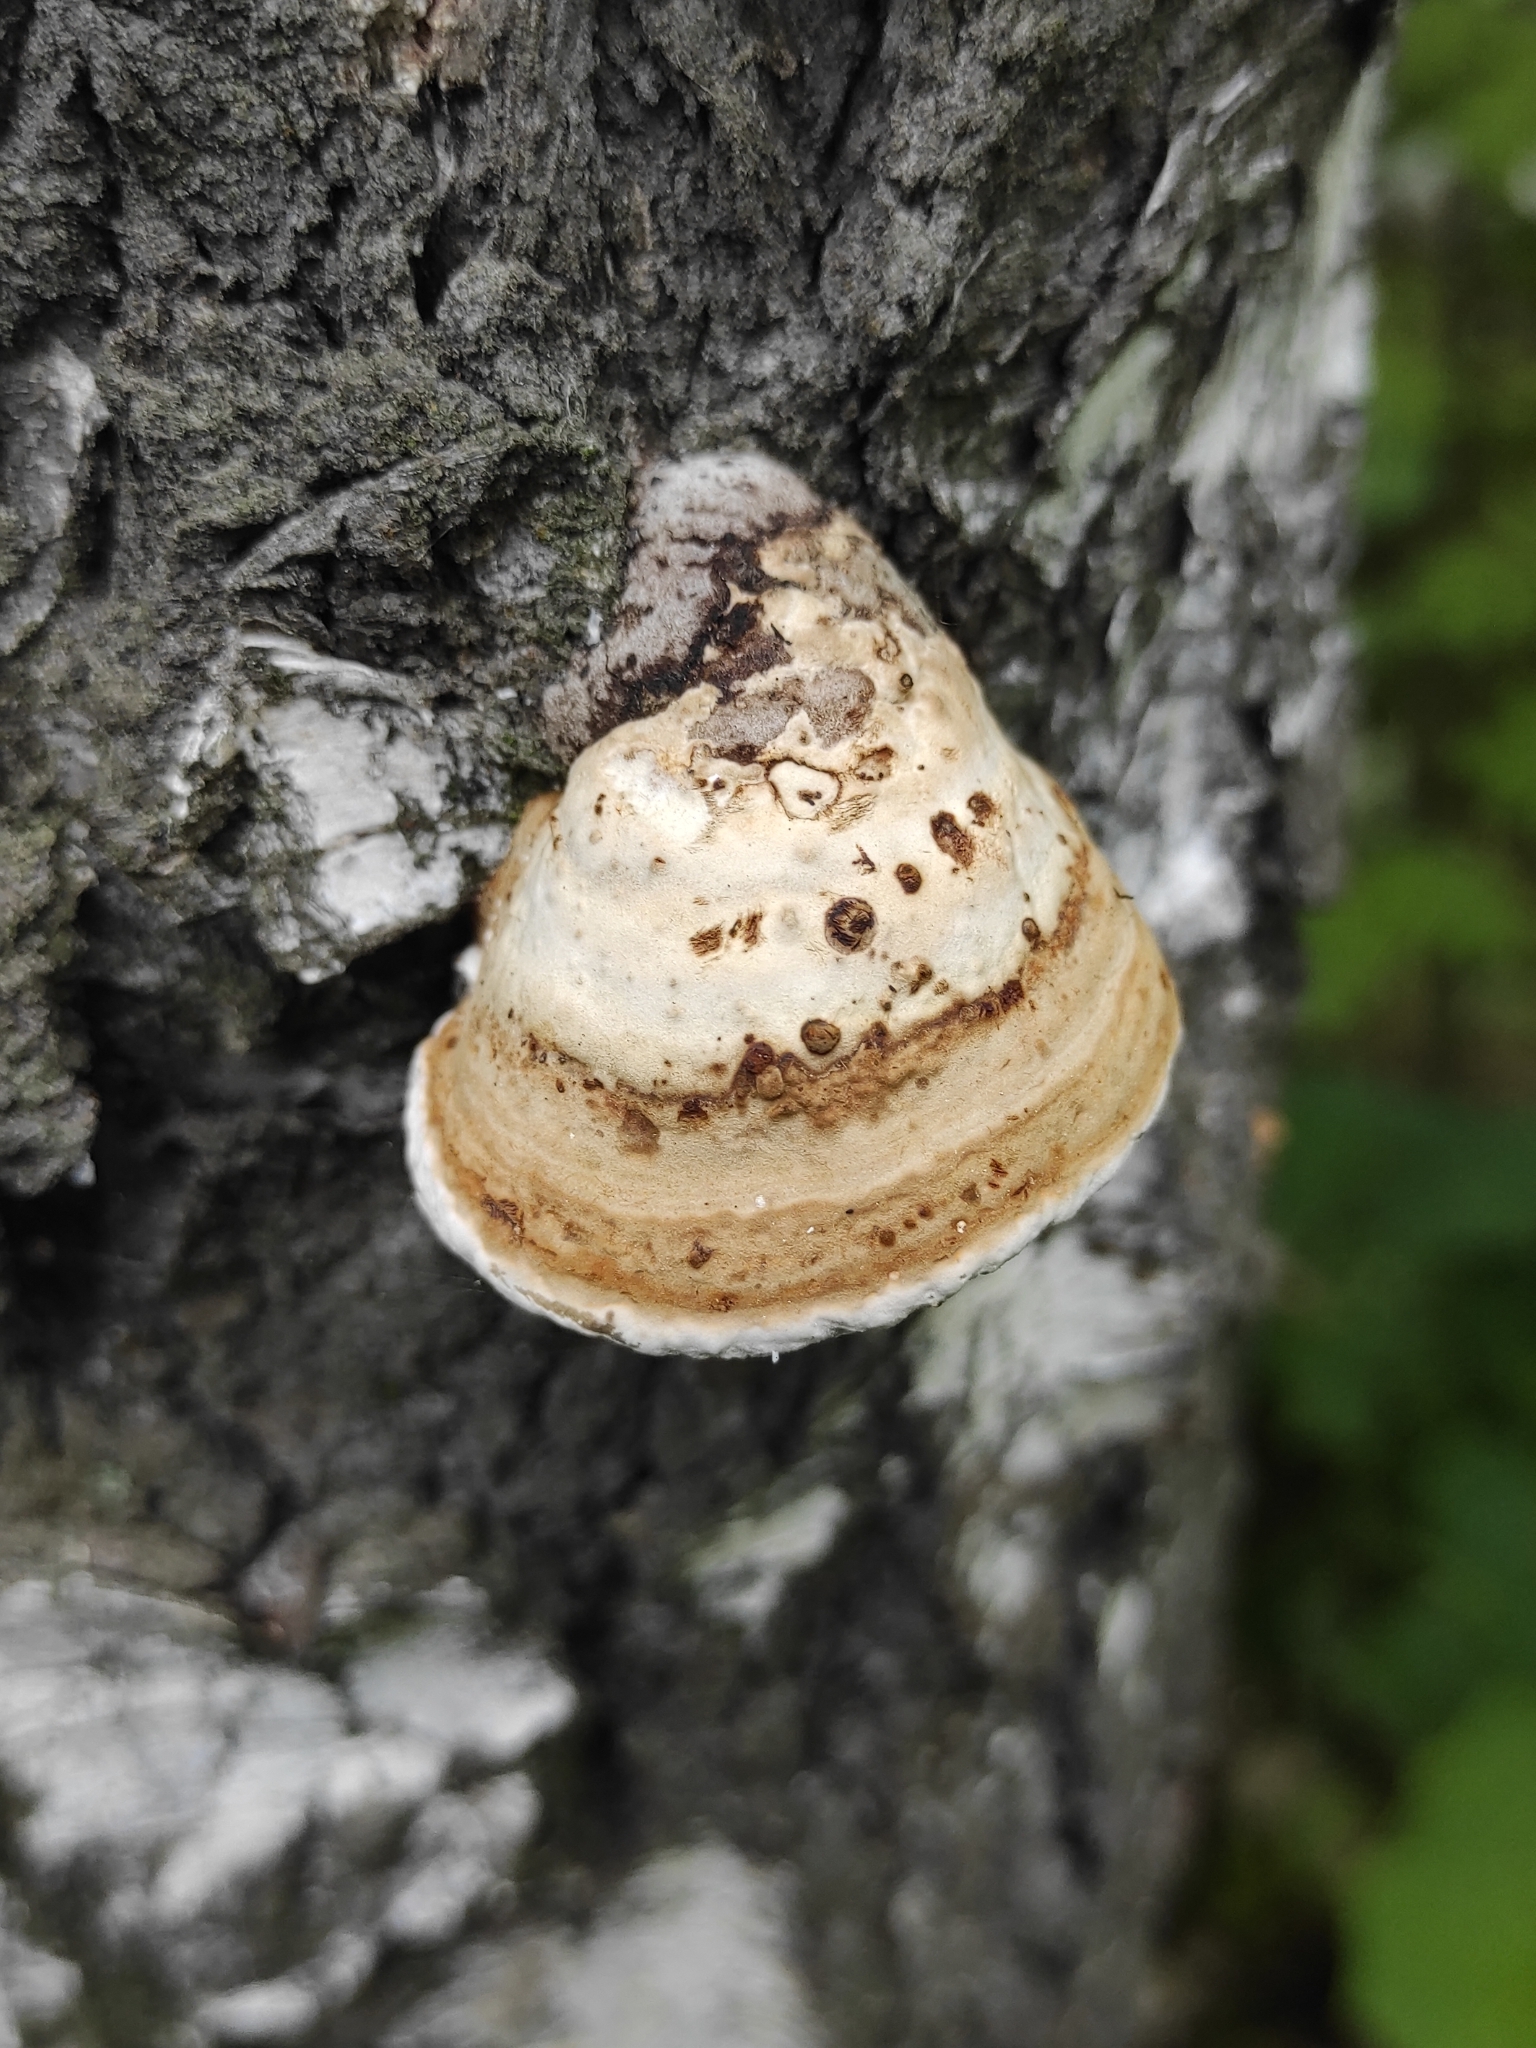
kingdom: Fungi
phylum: Basidiomycota
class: Agaricomycetes
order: Polyporales
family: Fomitopsidaceae
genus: Fomitopsis
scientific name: Fomitopsis betulina
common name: Birch polypore
